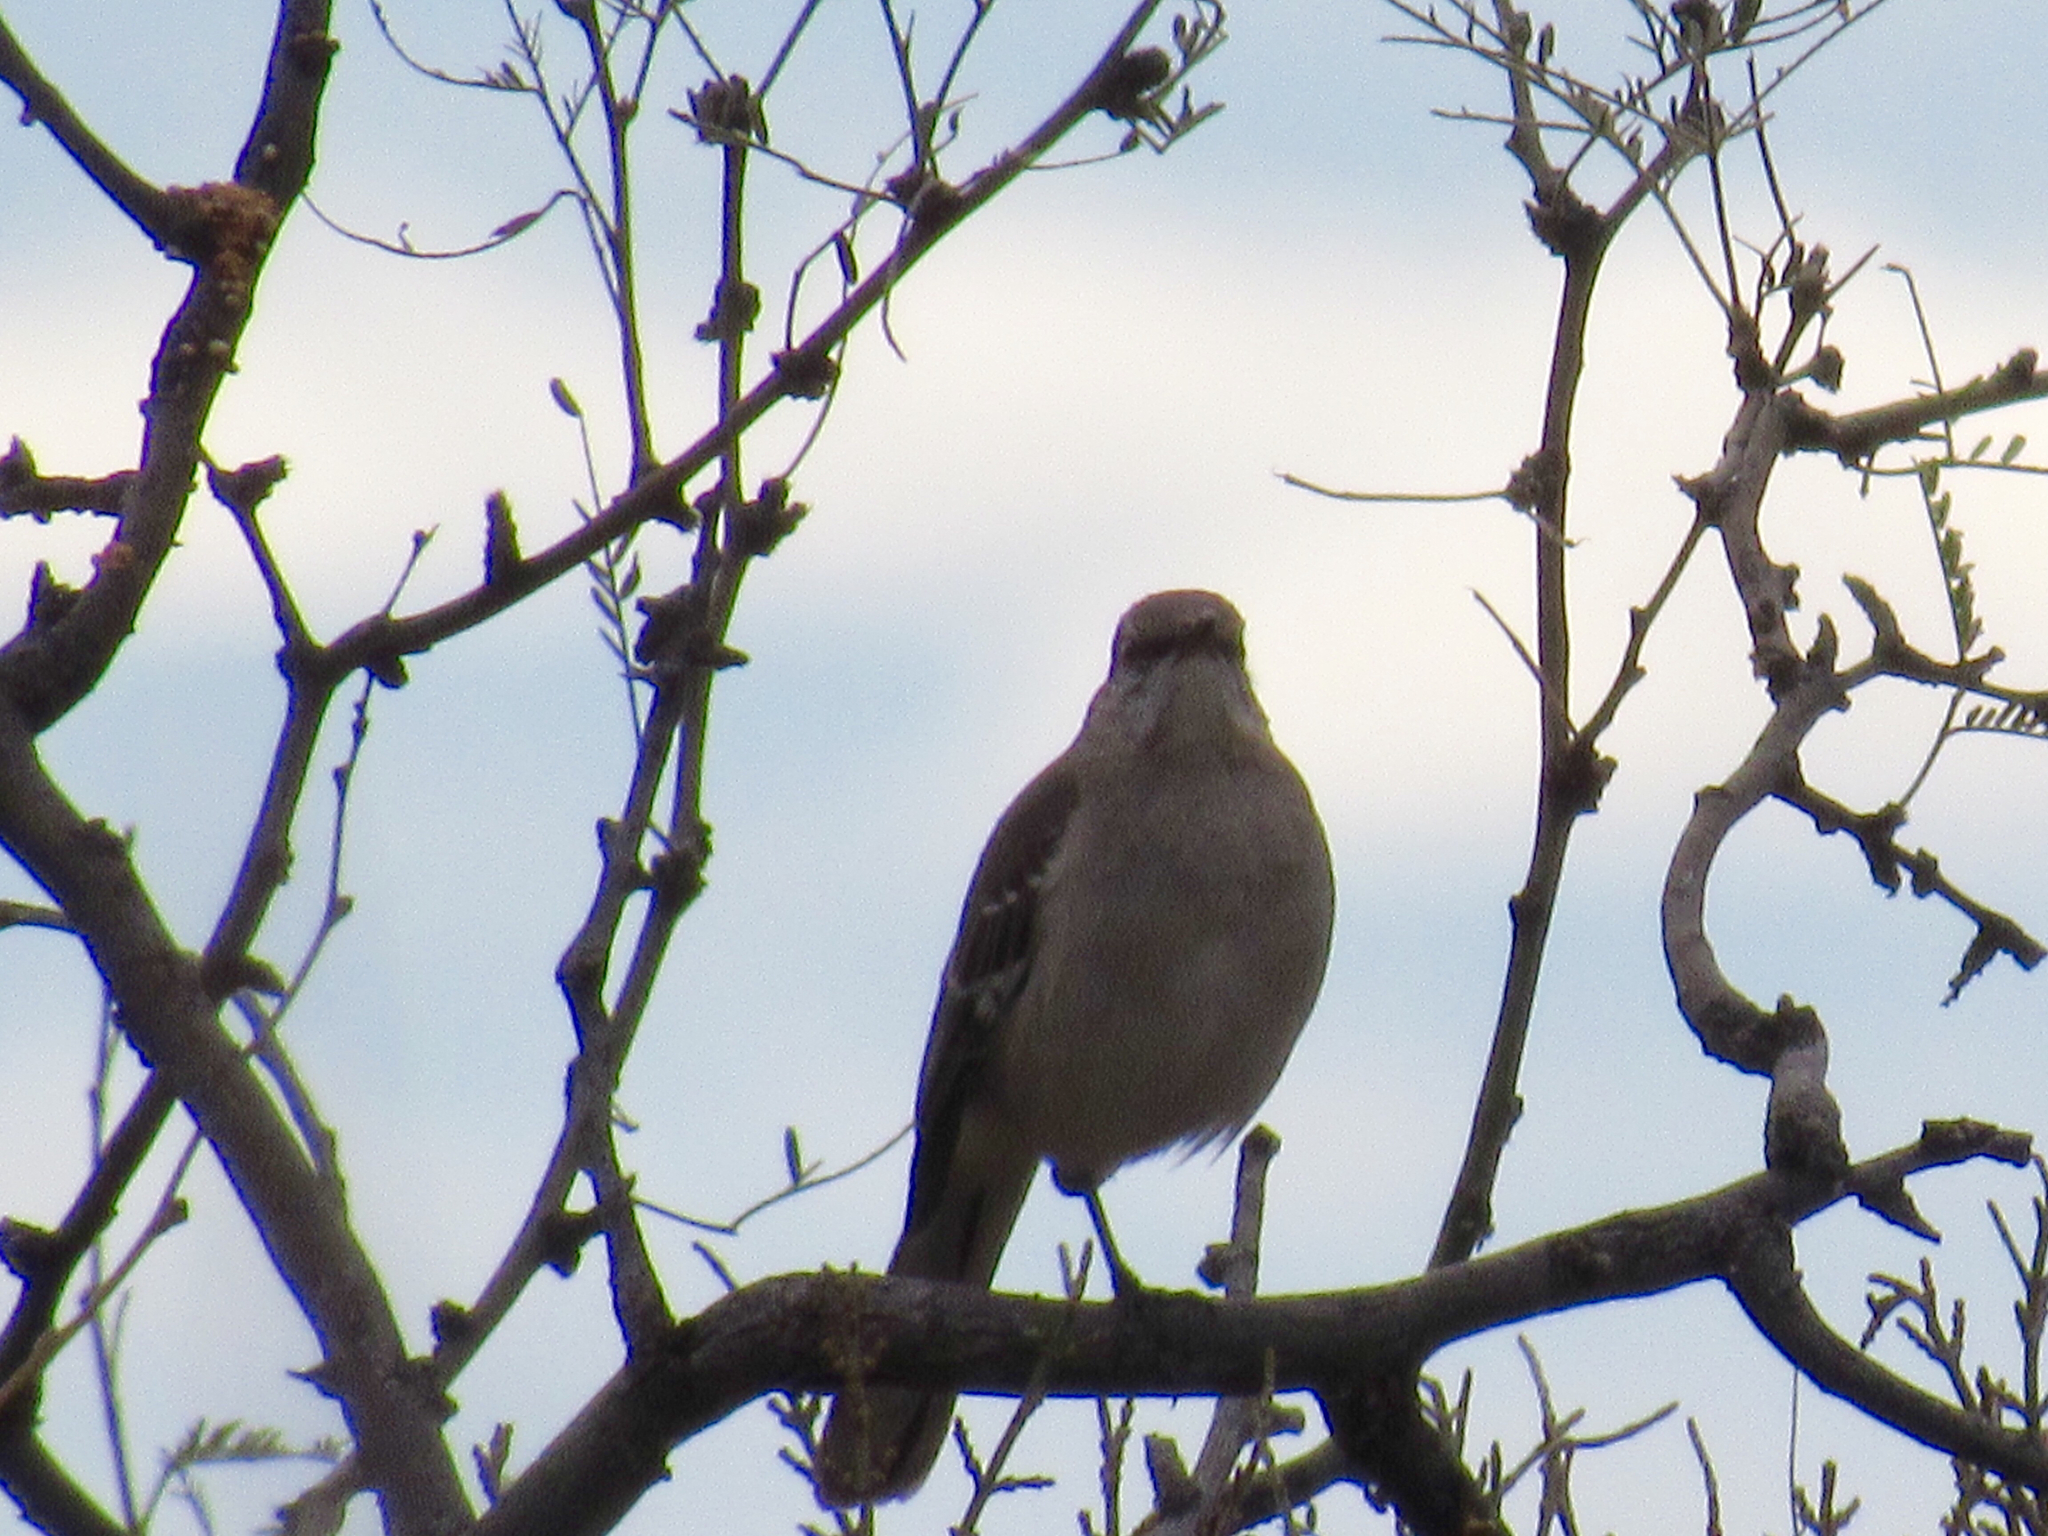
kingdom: Animalia
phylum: Chordata
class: Aves
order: Passeriformes
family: Mimidae
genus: Mimus
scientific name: Mimus polyglottos
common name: Northern mockingbird
